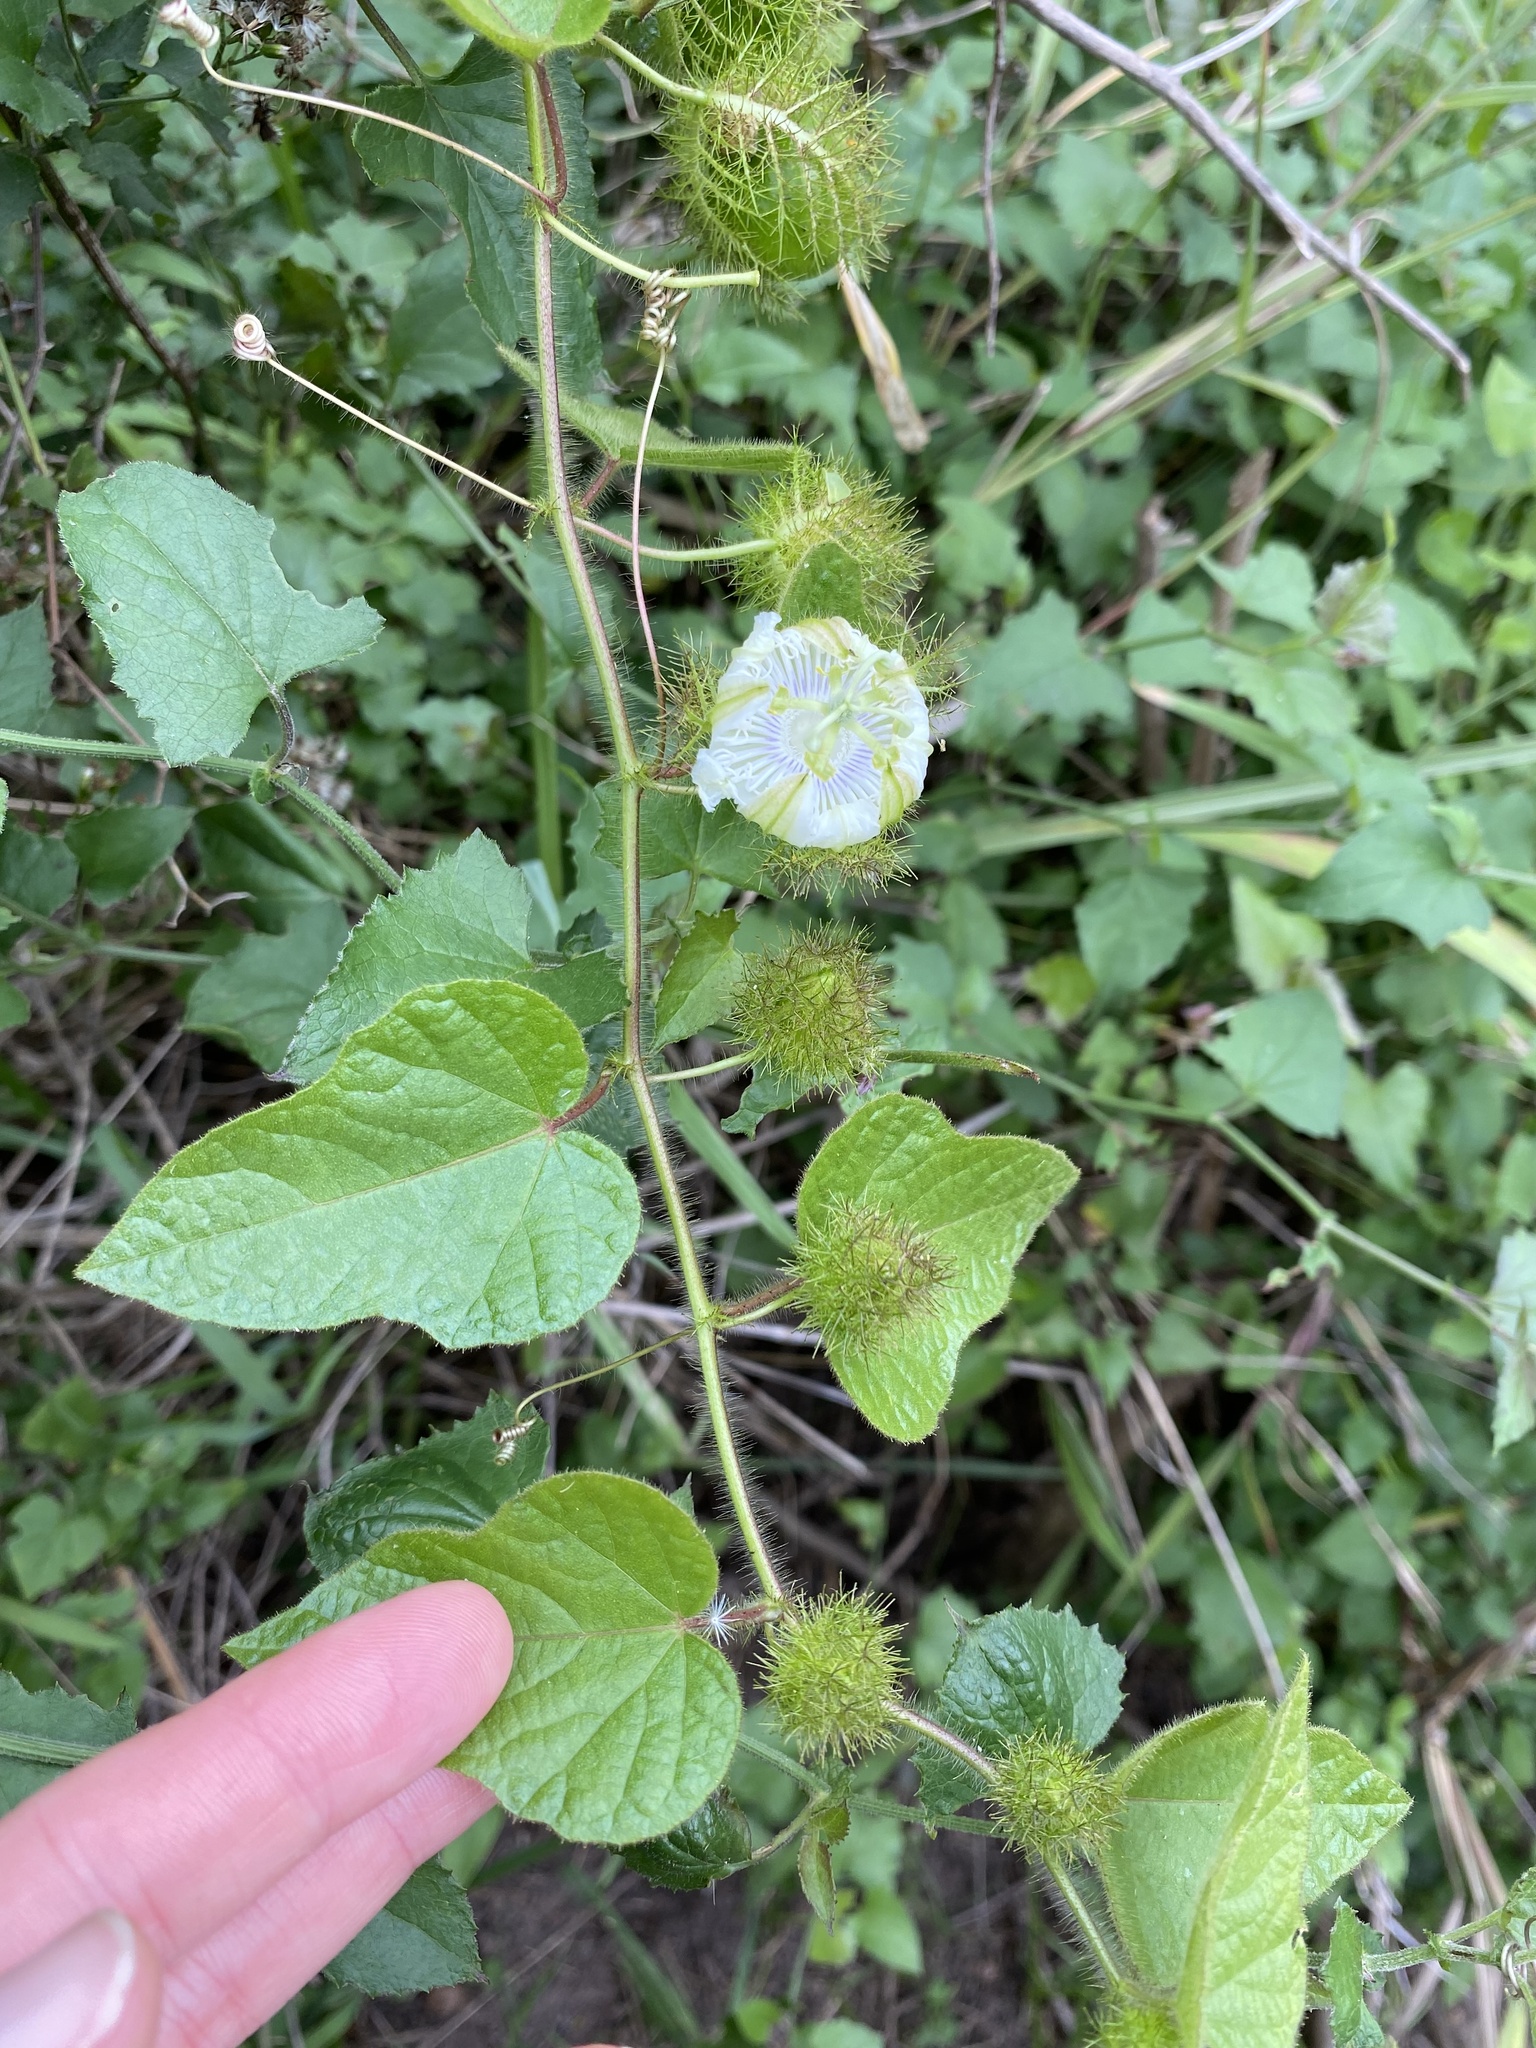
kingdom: Plantae
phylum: Tracheophyta
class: Magnoliopsida
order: Malpighiales
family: Passifloraceae
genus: Passiflora
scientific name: Passiflora foetida
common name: Fetid passionflower
